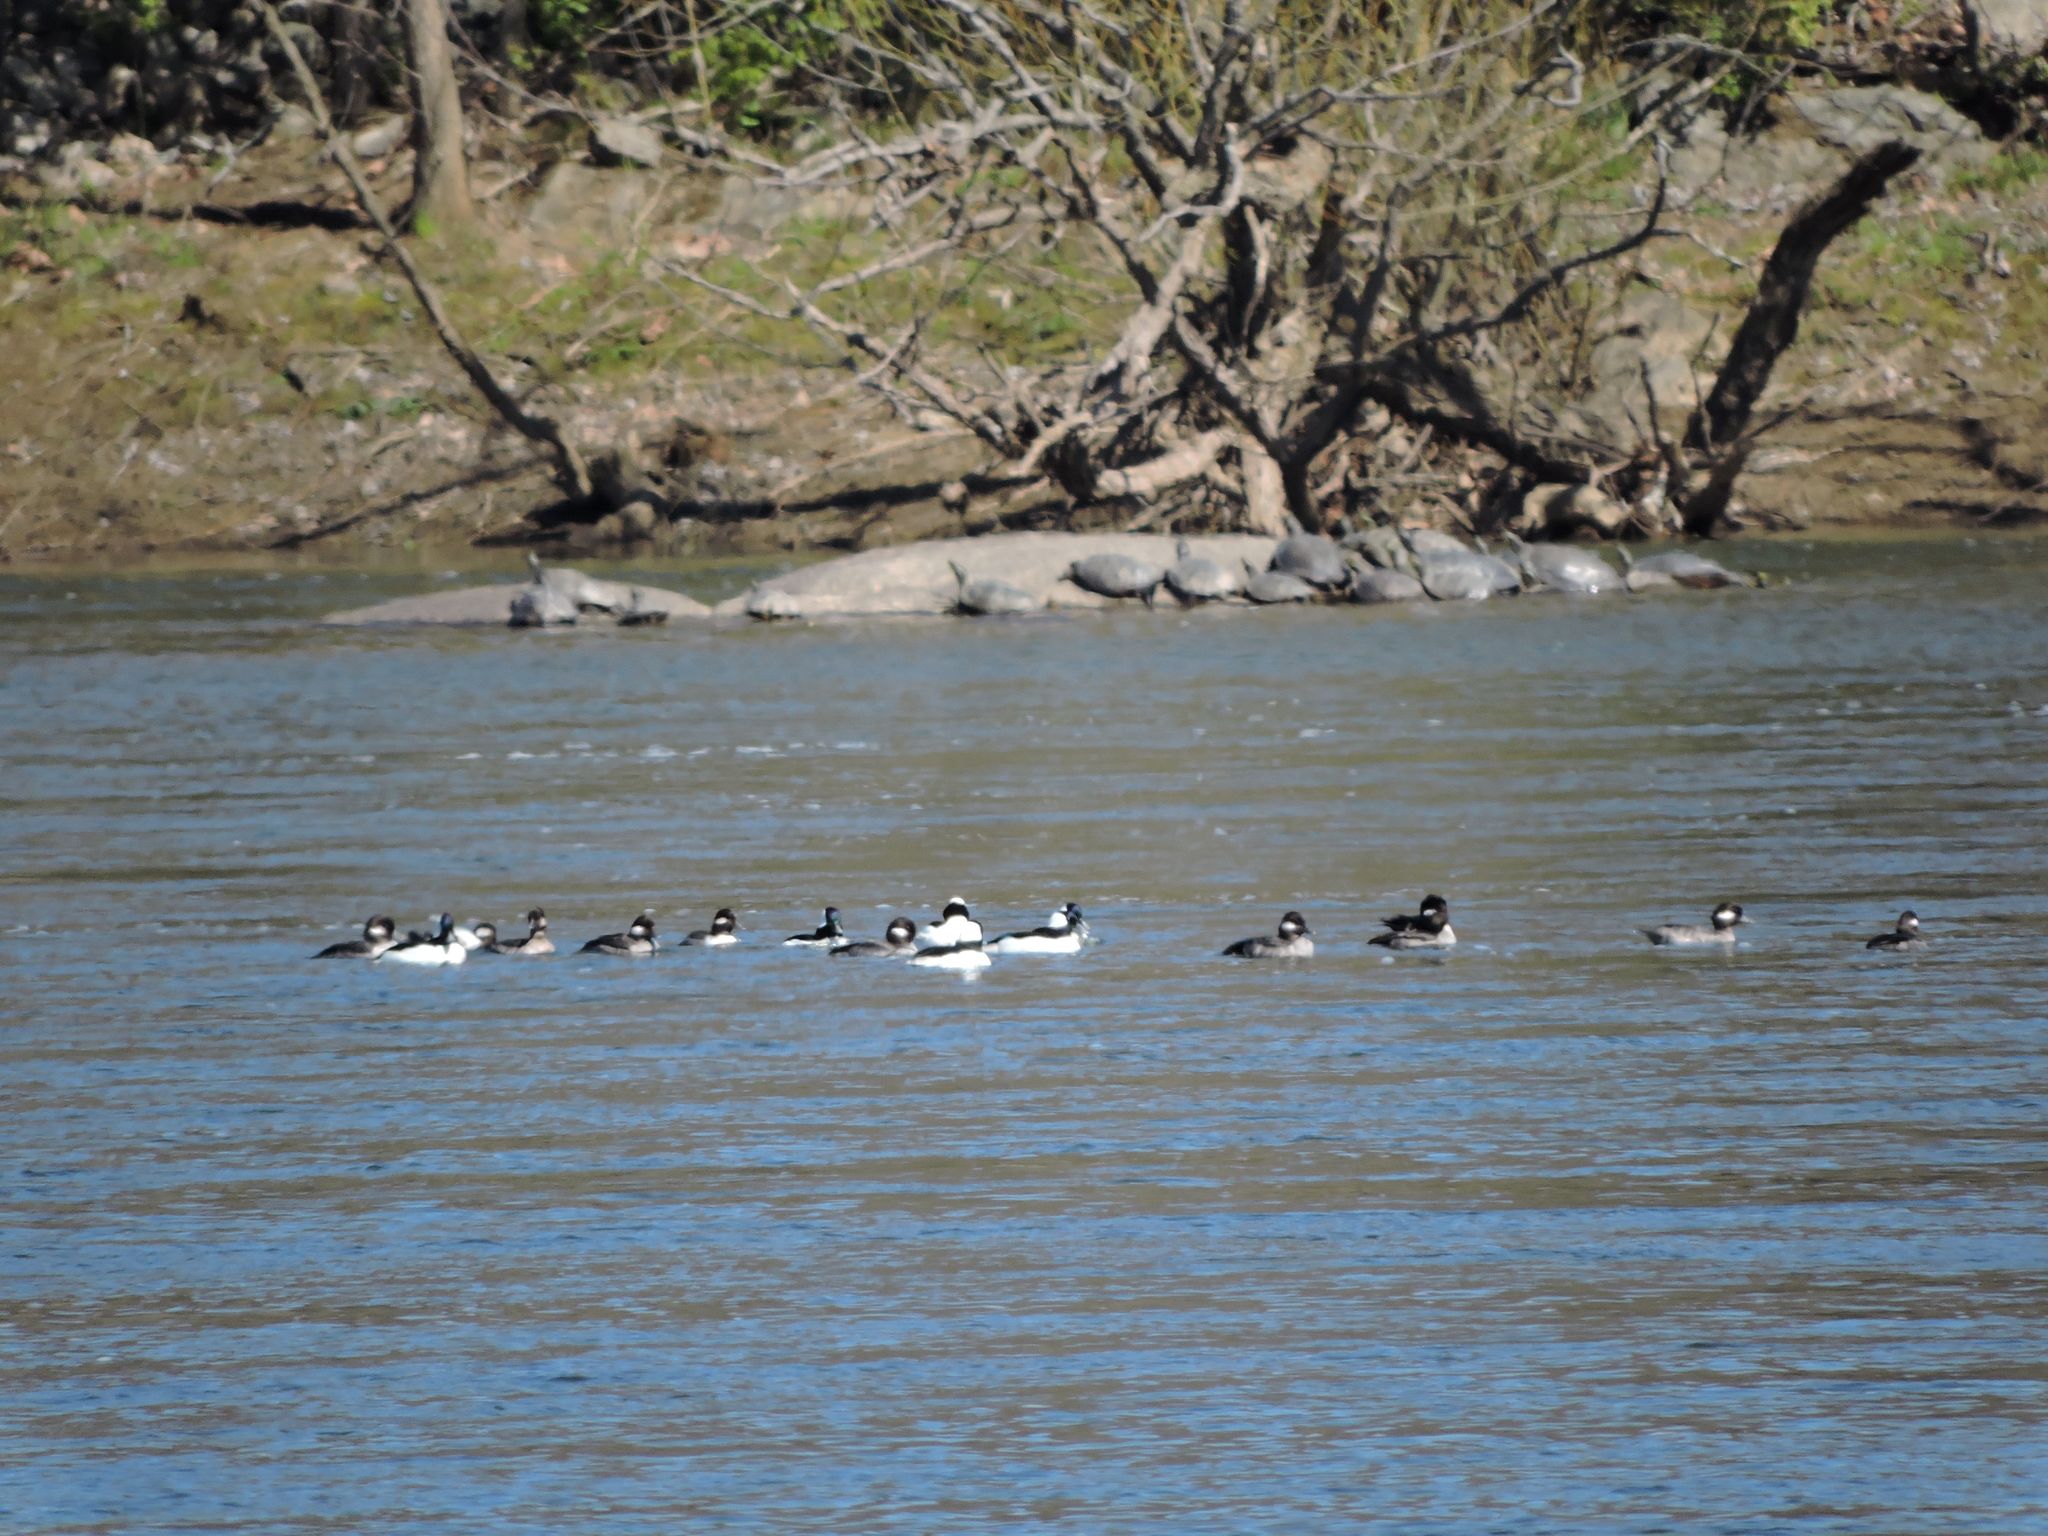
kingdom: Animalia
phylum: Chordata
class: Aves
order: Anseriformes
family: Anatidae
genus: Bucephala
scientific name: Bucephala albeola
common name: Bufflehead
